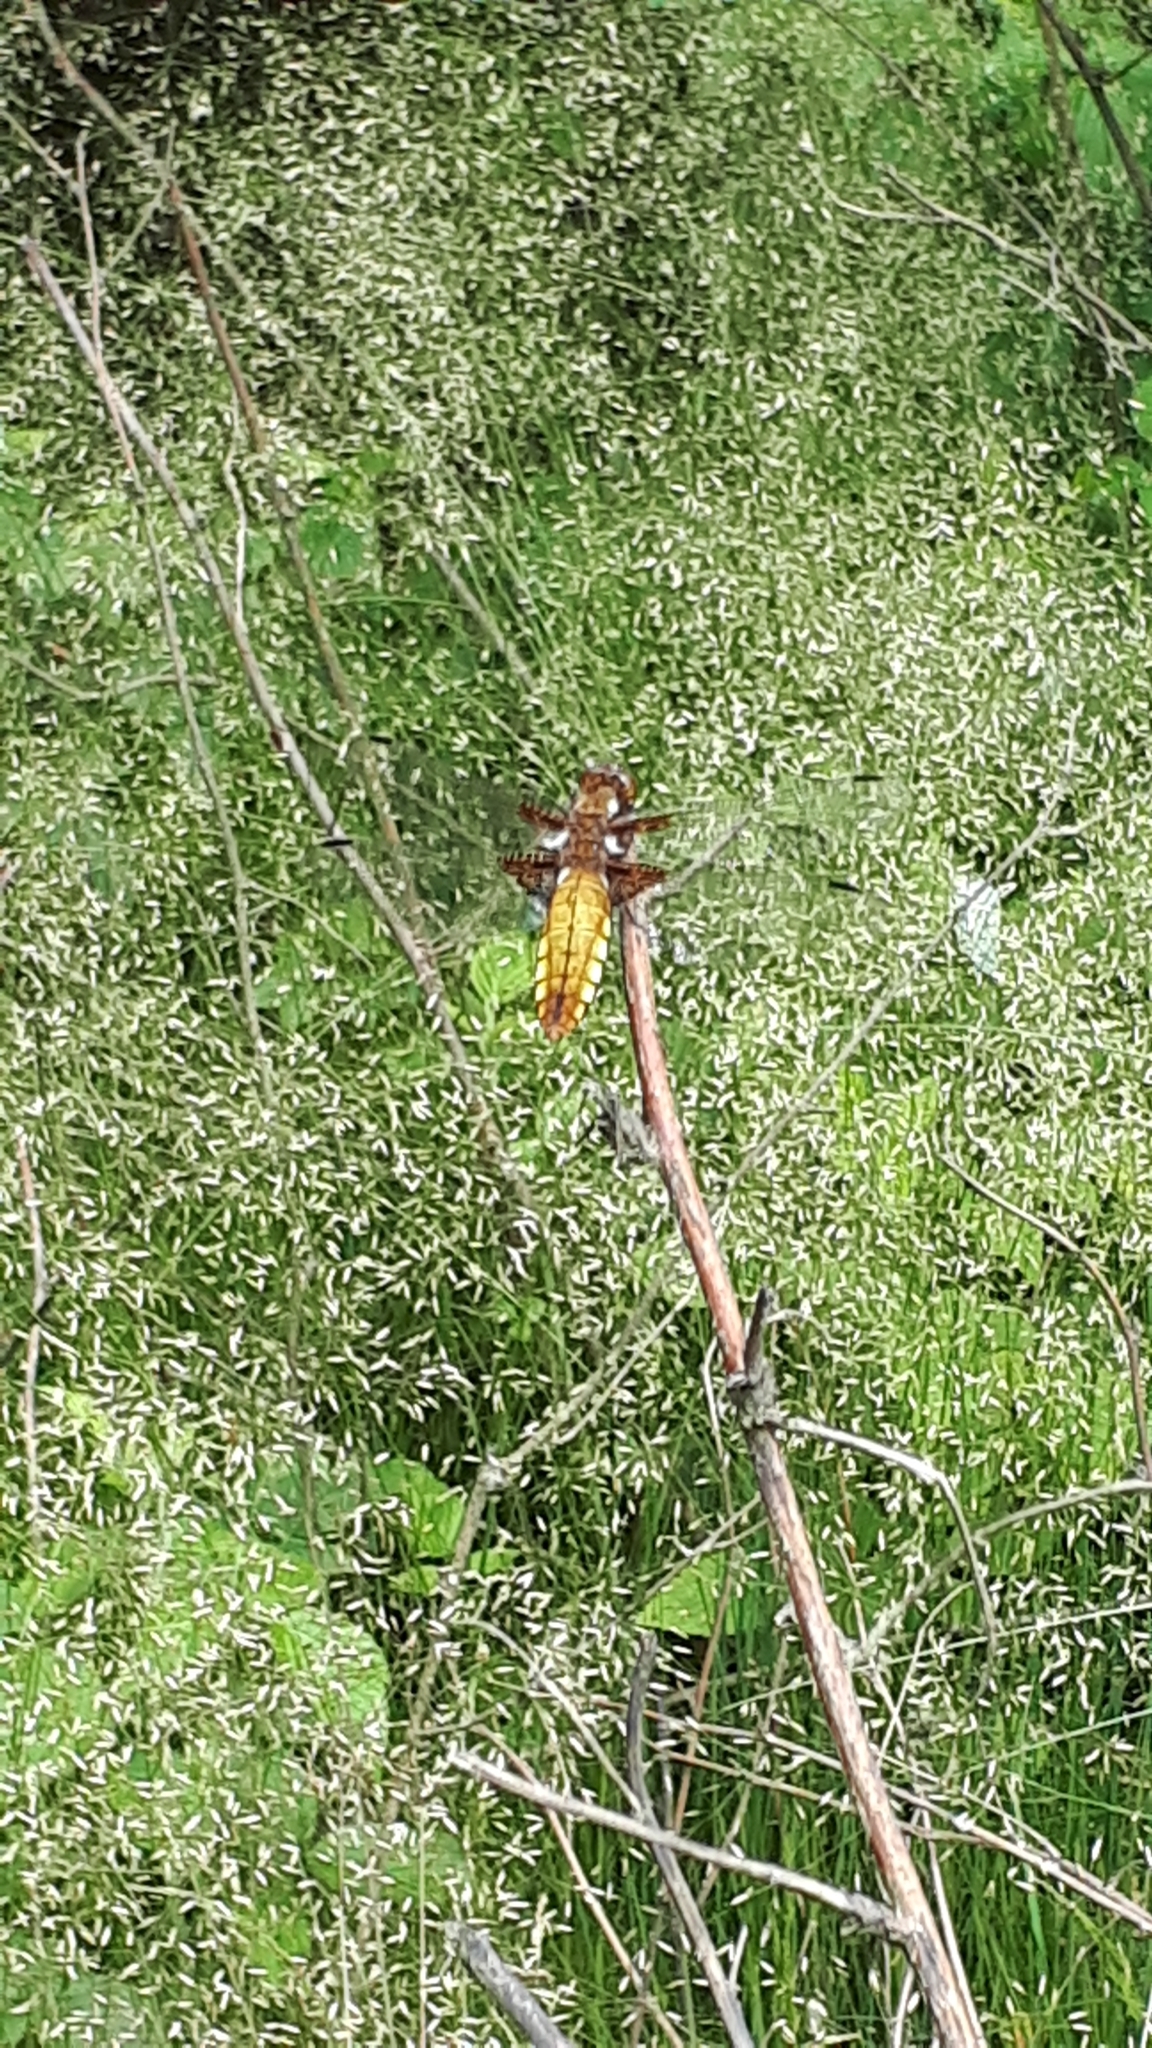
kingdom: Animalia
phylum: Arthropoda
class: Insecta
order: Odonata
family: Libellulidae
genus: Libellula
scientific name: Libellula depressa
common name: Broad-bodied chaser
